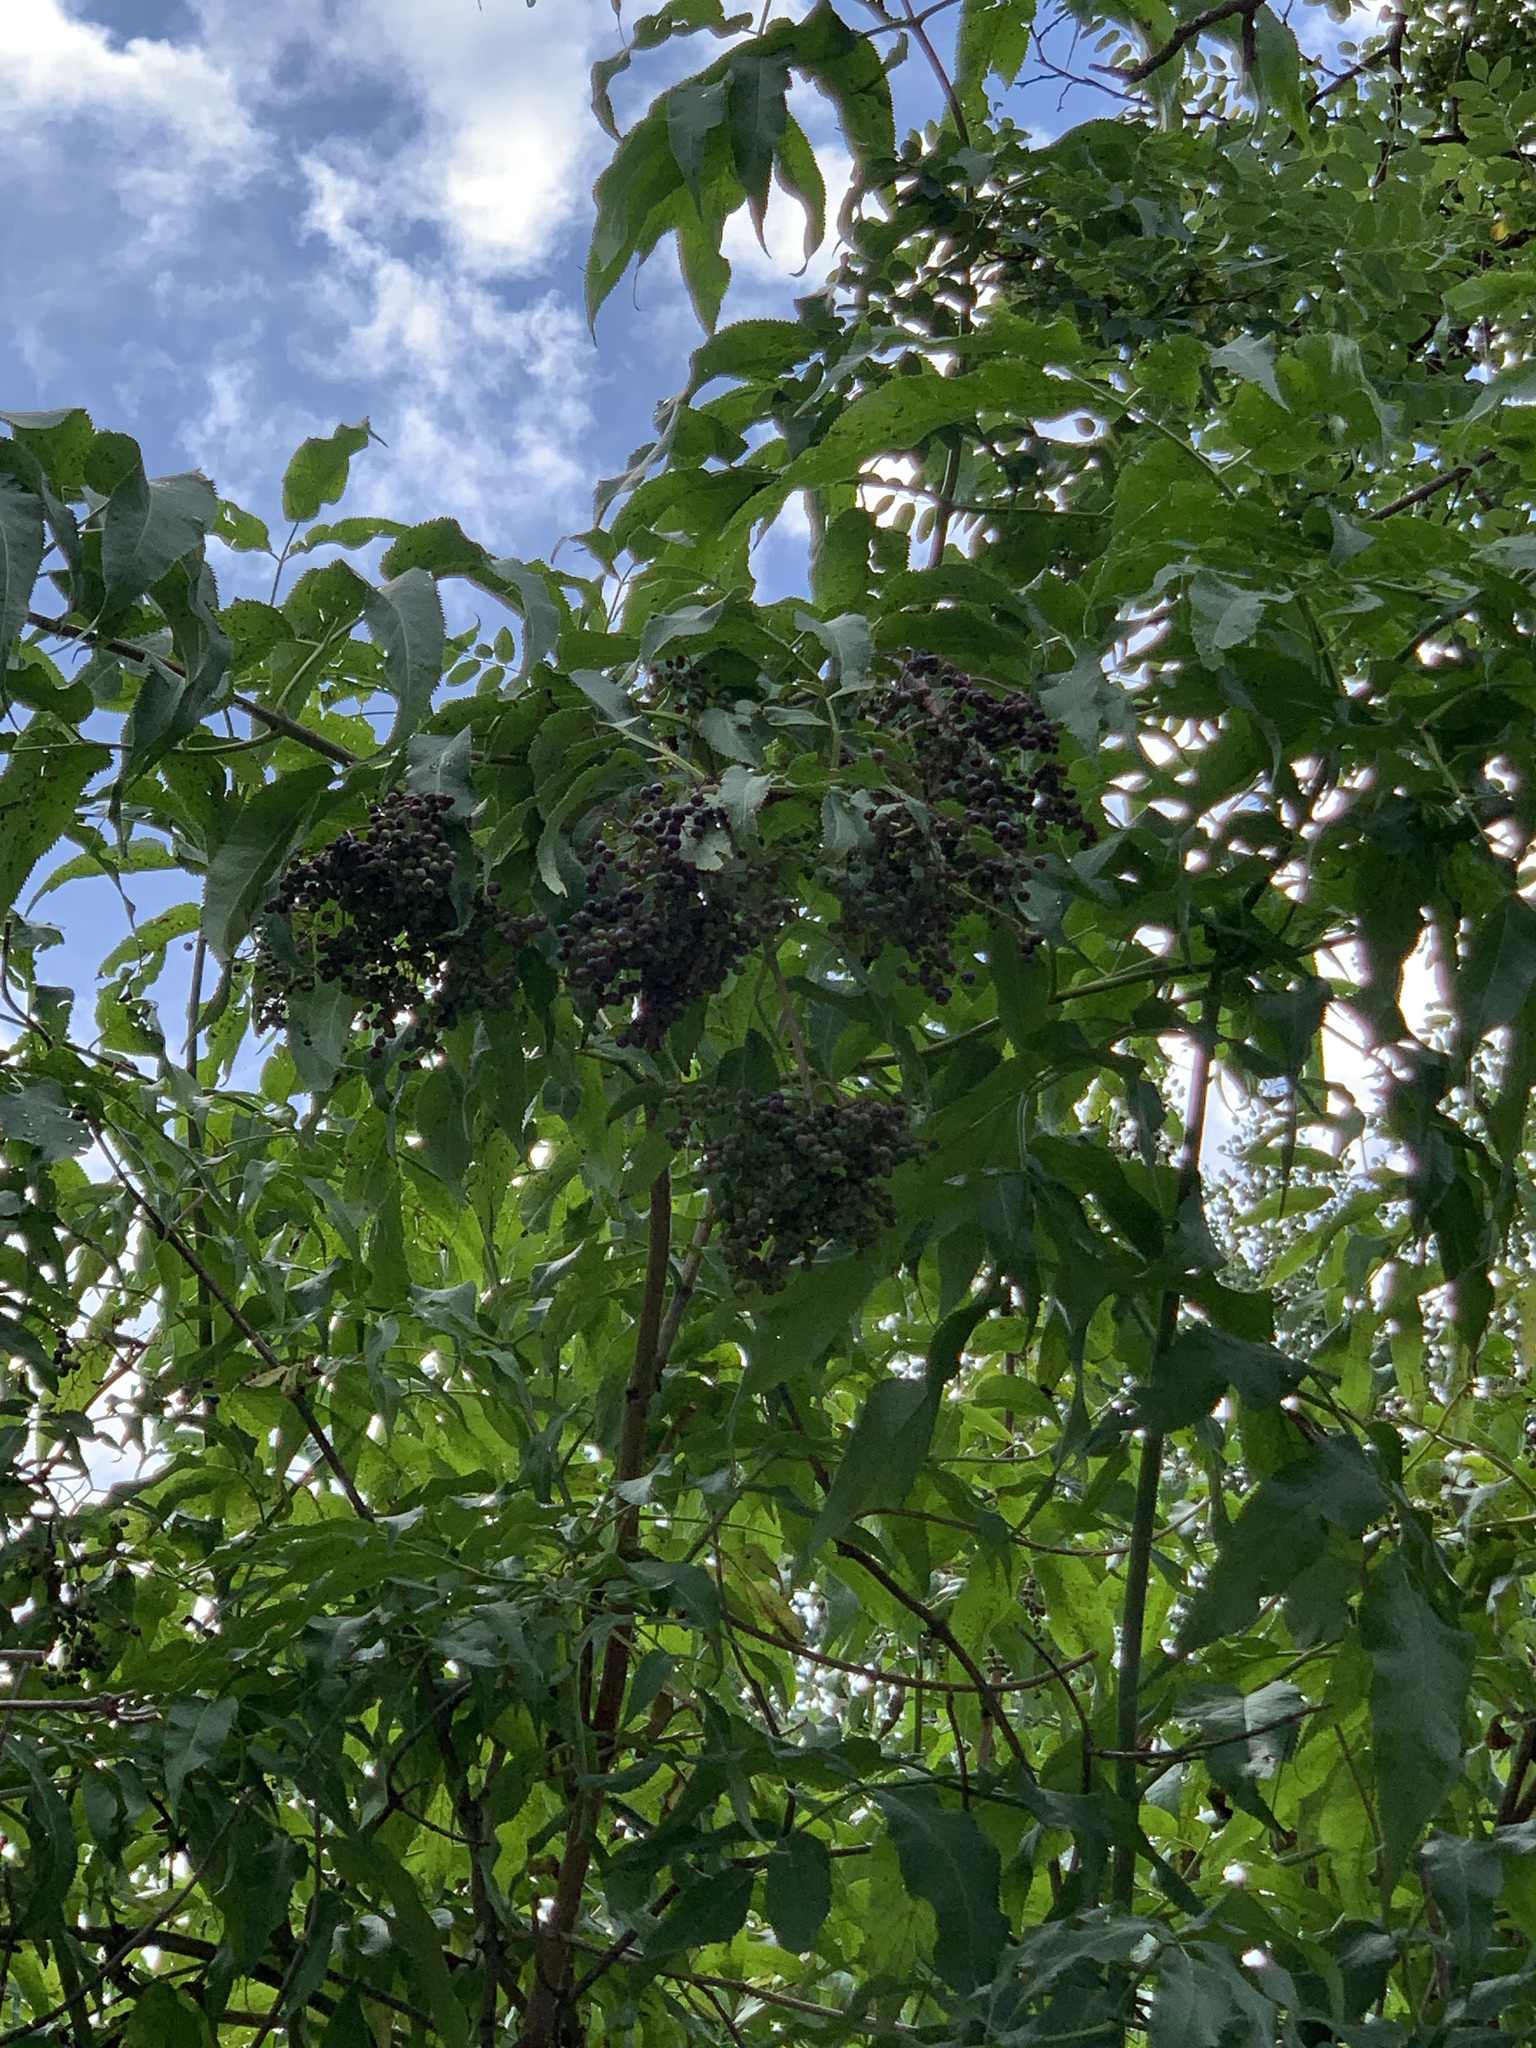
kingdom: Plantae
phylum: Tracheophyta
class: Magnoliopsida
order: Dipsacales
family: Viburnaceae
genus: Sambucus
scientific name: Sambucus cerulea
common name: Blue elder
